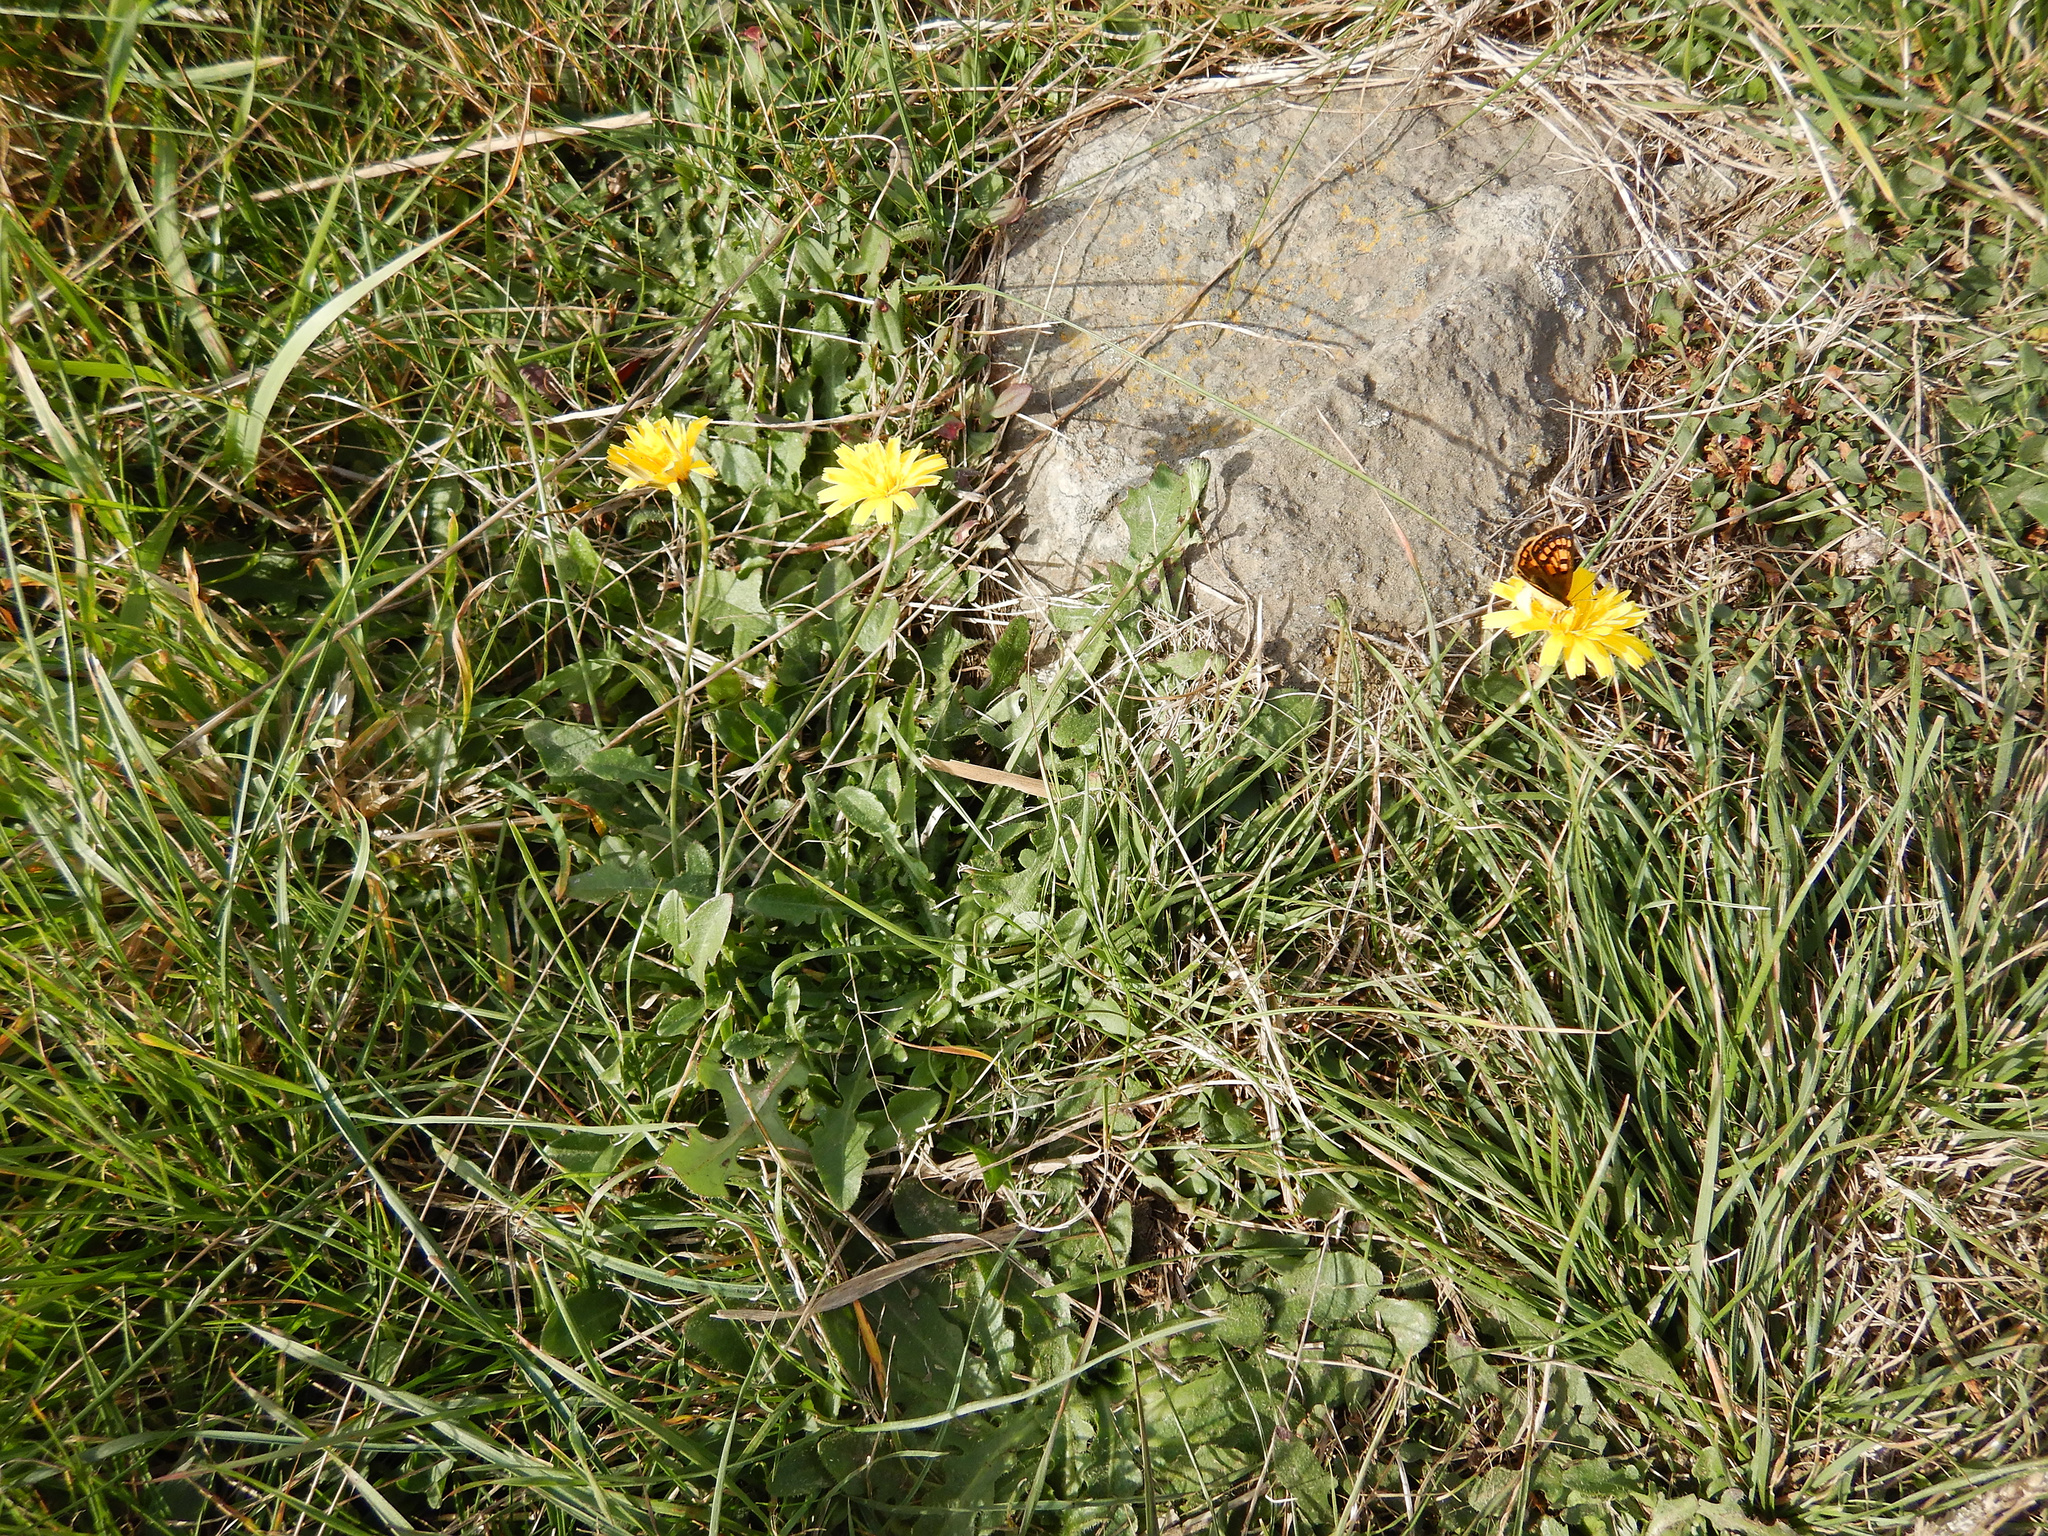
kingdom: Plantae
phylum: Tracheophyta
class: Magnoliopsida
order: Asterales
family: Asteraceae
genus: Hypochaeris
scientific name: Hypochaeris radicata
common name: Flatweed
